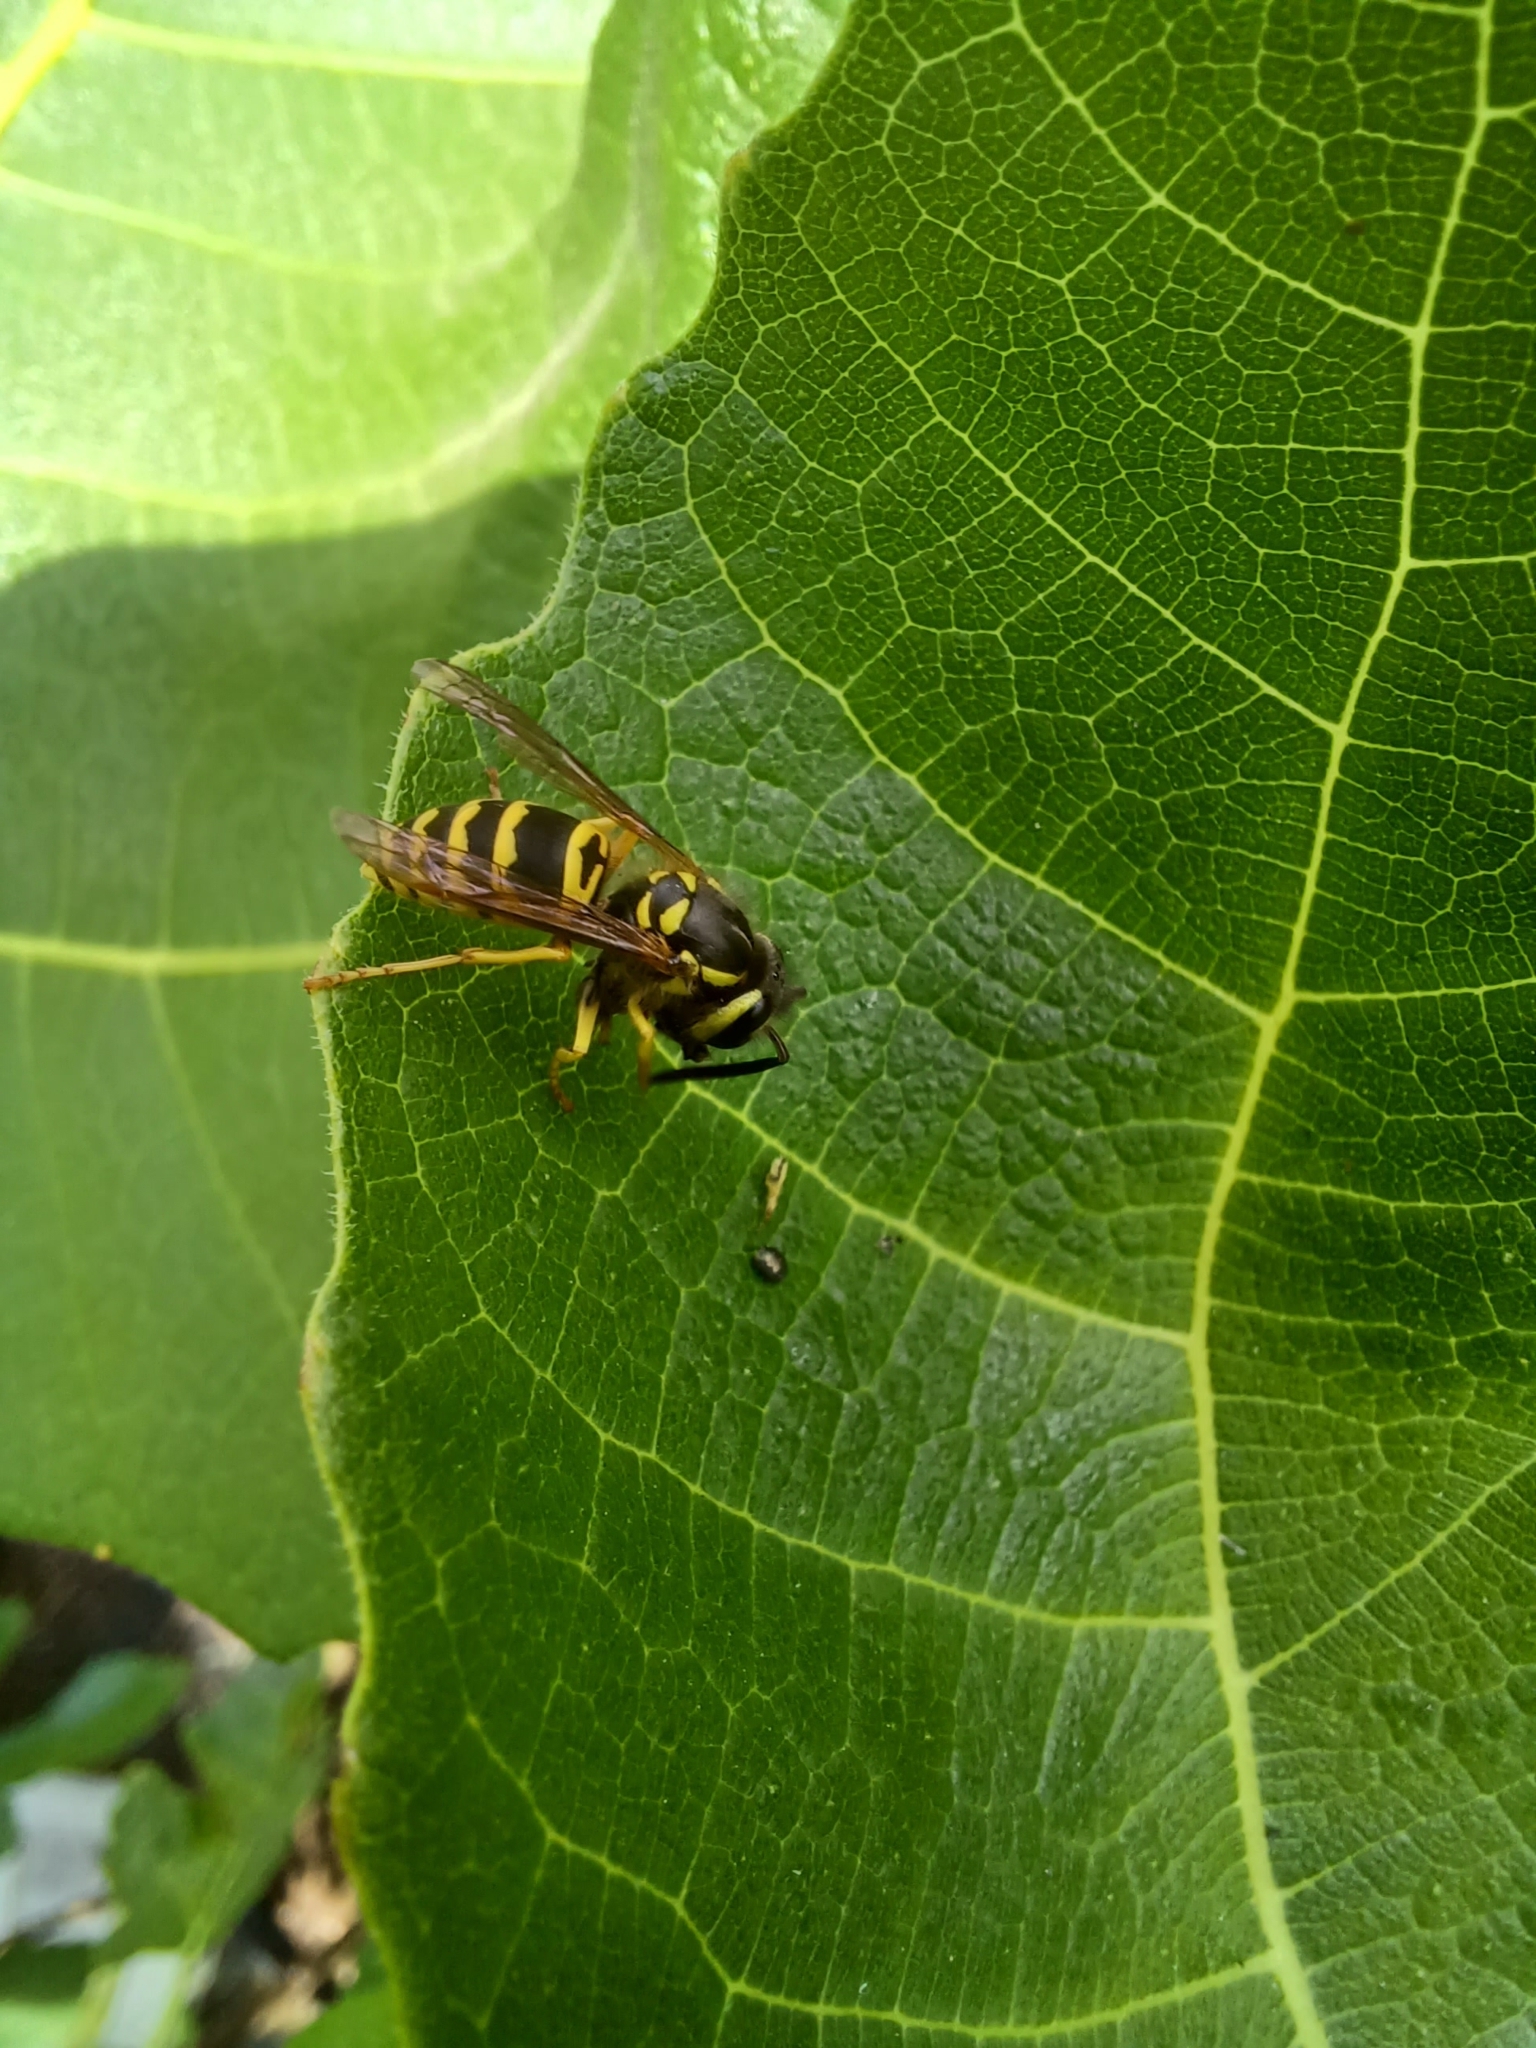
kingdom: Animalia
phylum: Arthropoda
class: Insecta
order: Hymenoptera
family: Vespidae
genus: Vespula
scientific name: Vespula maculifrons
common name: Eastern yellowjacket
